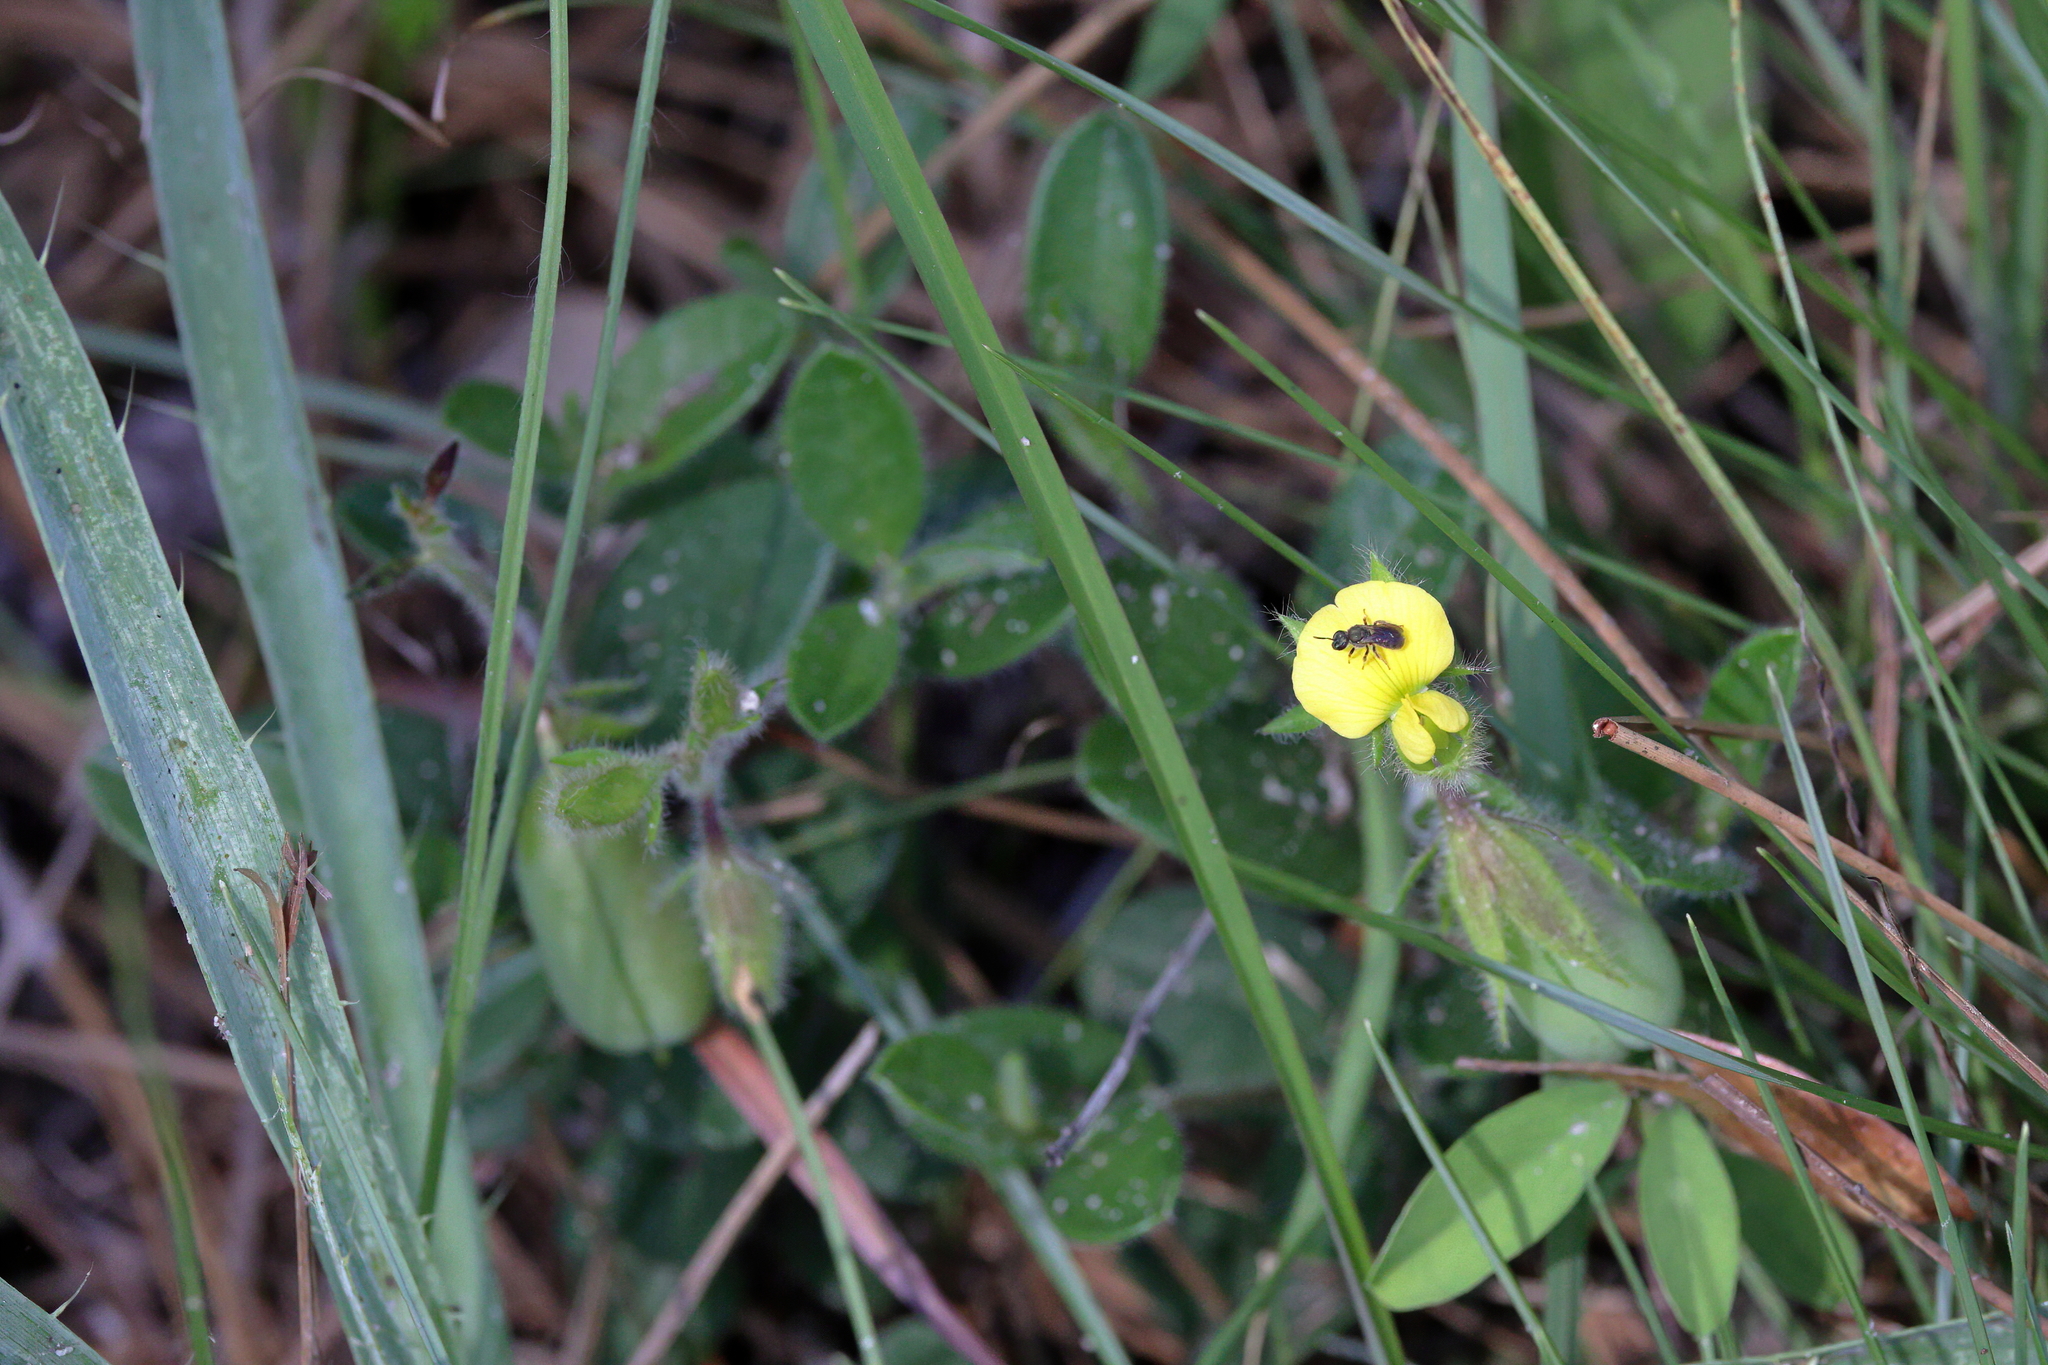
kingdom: Plantae
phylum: Tracheophyta
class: Magnoliopsida
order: Fabales
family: Fabaceae
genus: Crotalaria
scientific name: Crotalaria rotundifolia
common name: Prostrate rattlebox
